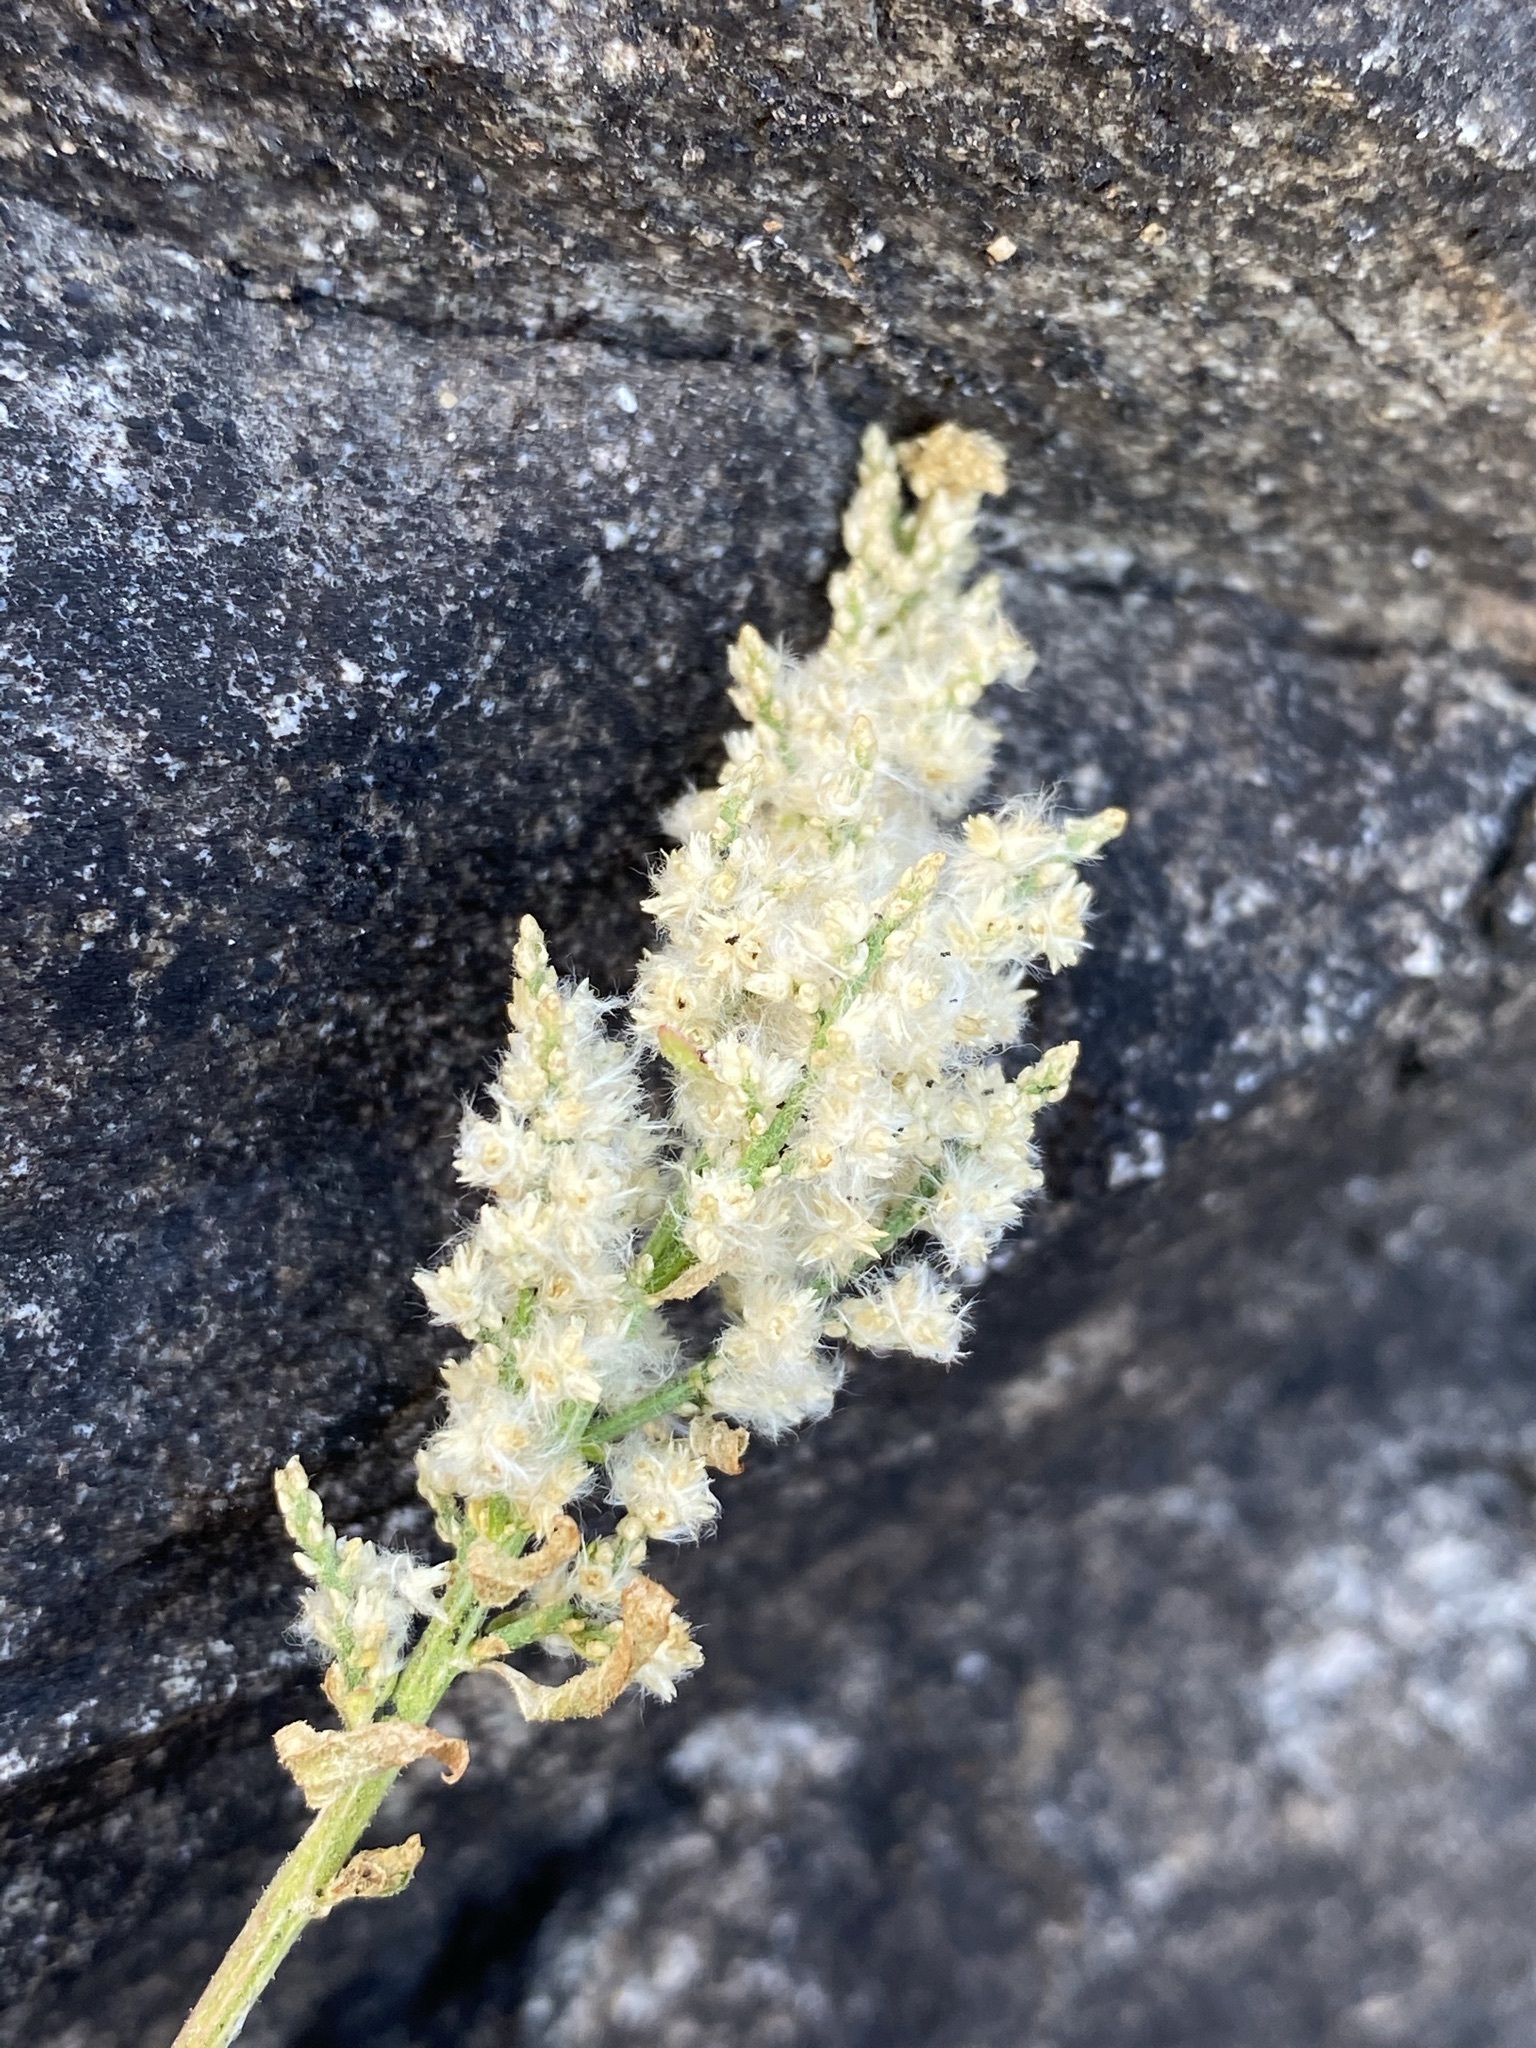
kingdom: Plantae
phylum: Tracheophyta
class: Magnoliopsida
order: Caryophyllales
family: Amaranthaceae
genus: Iresine
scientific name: Iresine heterophylla
